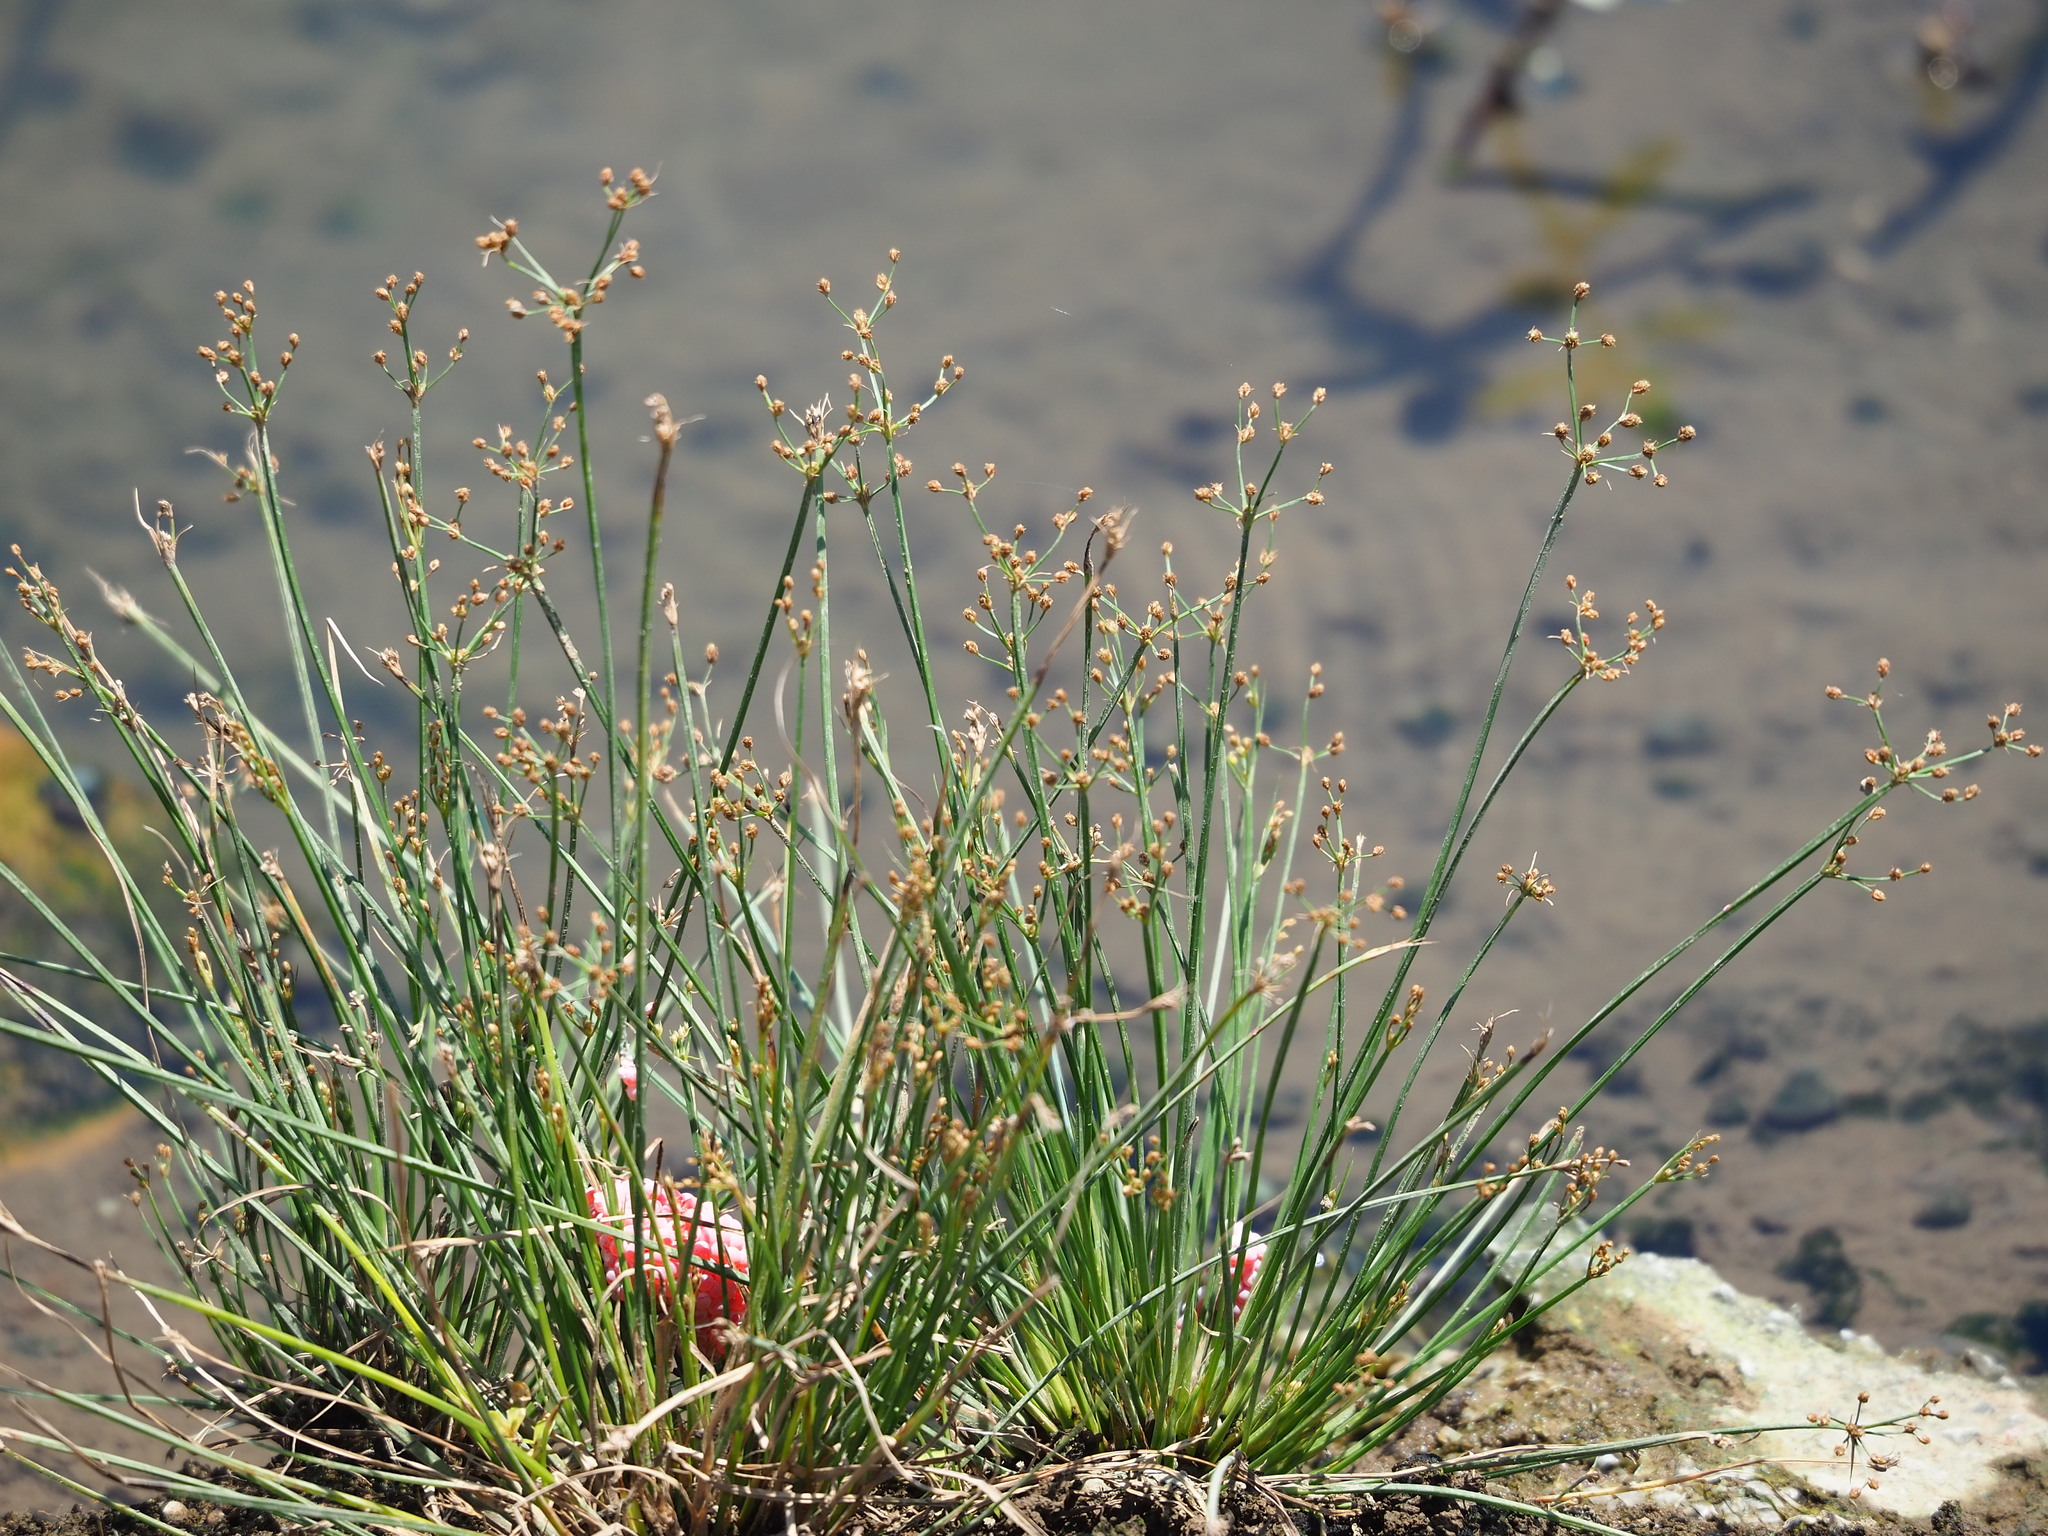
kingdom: Plantae
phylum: Tracheophyta
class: Liliopsida
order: Poales
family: Cyperaceae
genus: Fimbristylis
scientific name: Fimbristylis littoralis
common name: Fimbry
